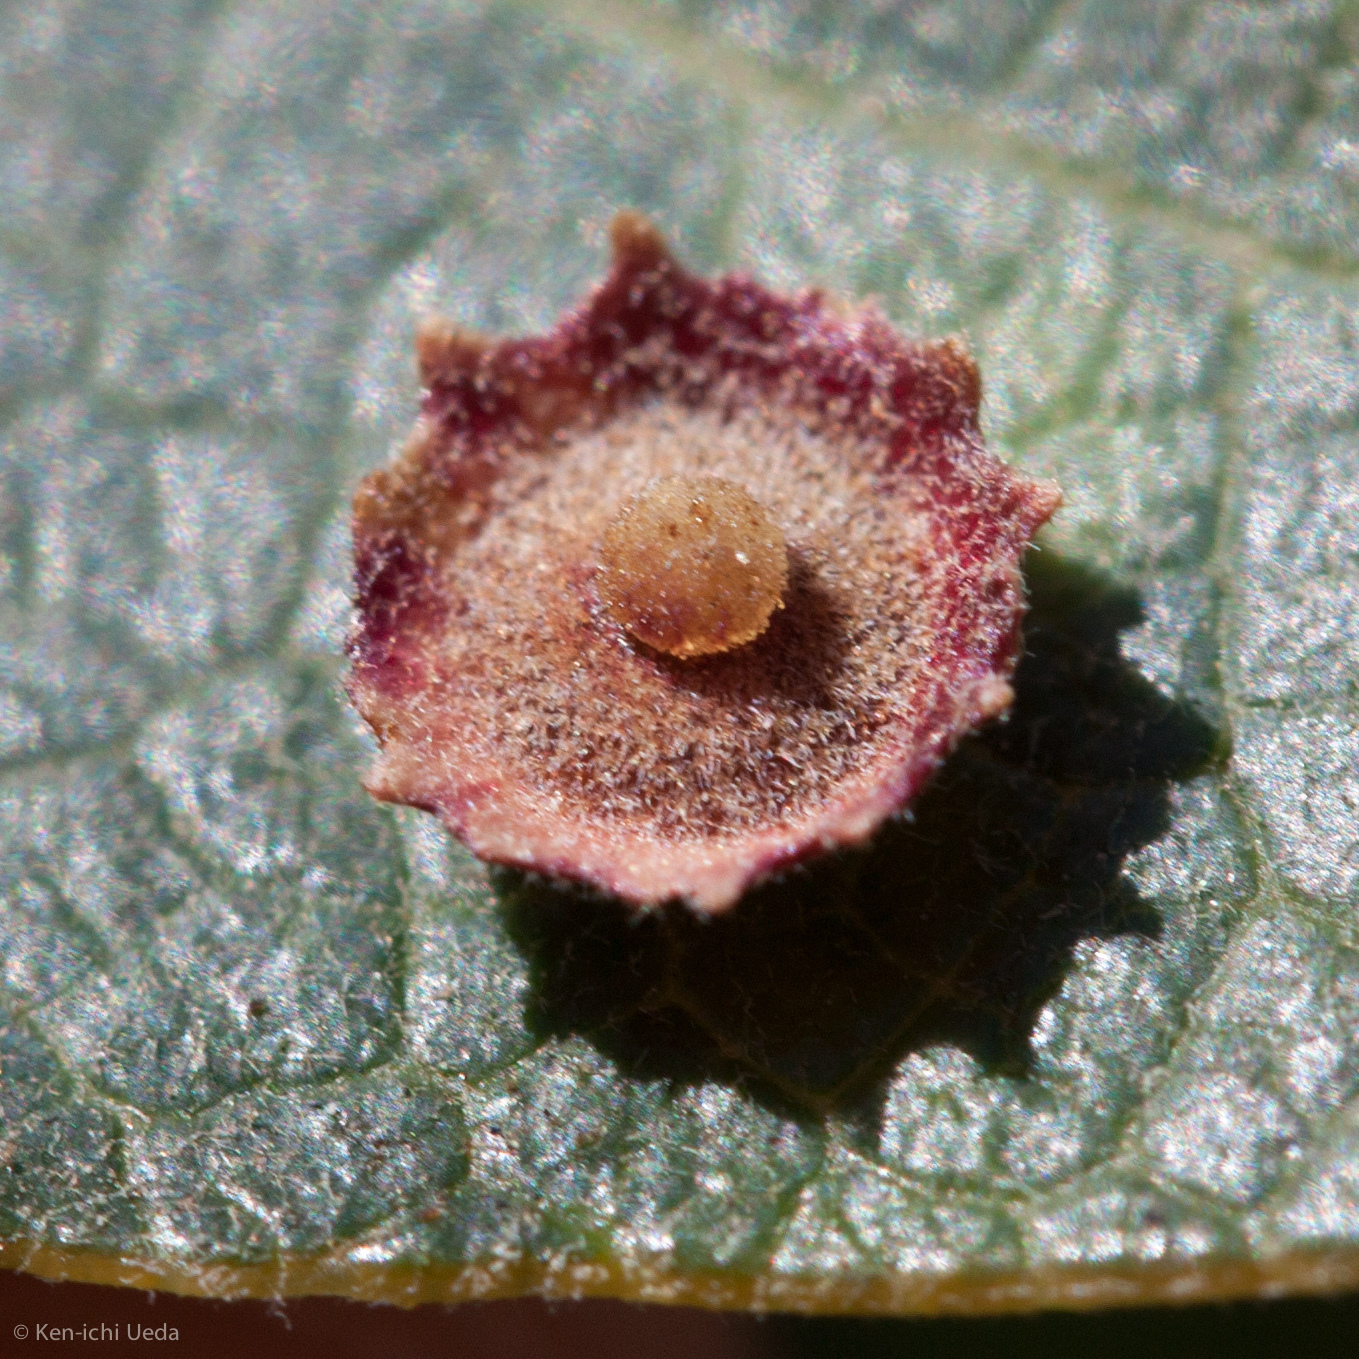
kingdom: Animalia
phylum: Arthropoda
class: Insecta
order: Hymenoptera
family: Cynipidae
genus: Andricus
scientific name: Andricus
